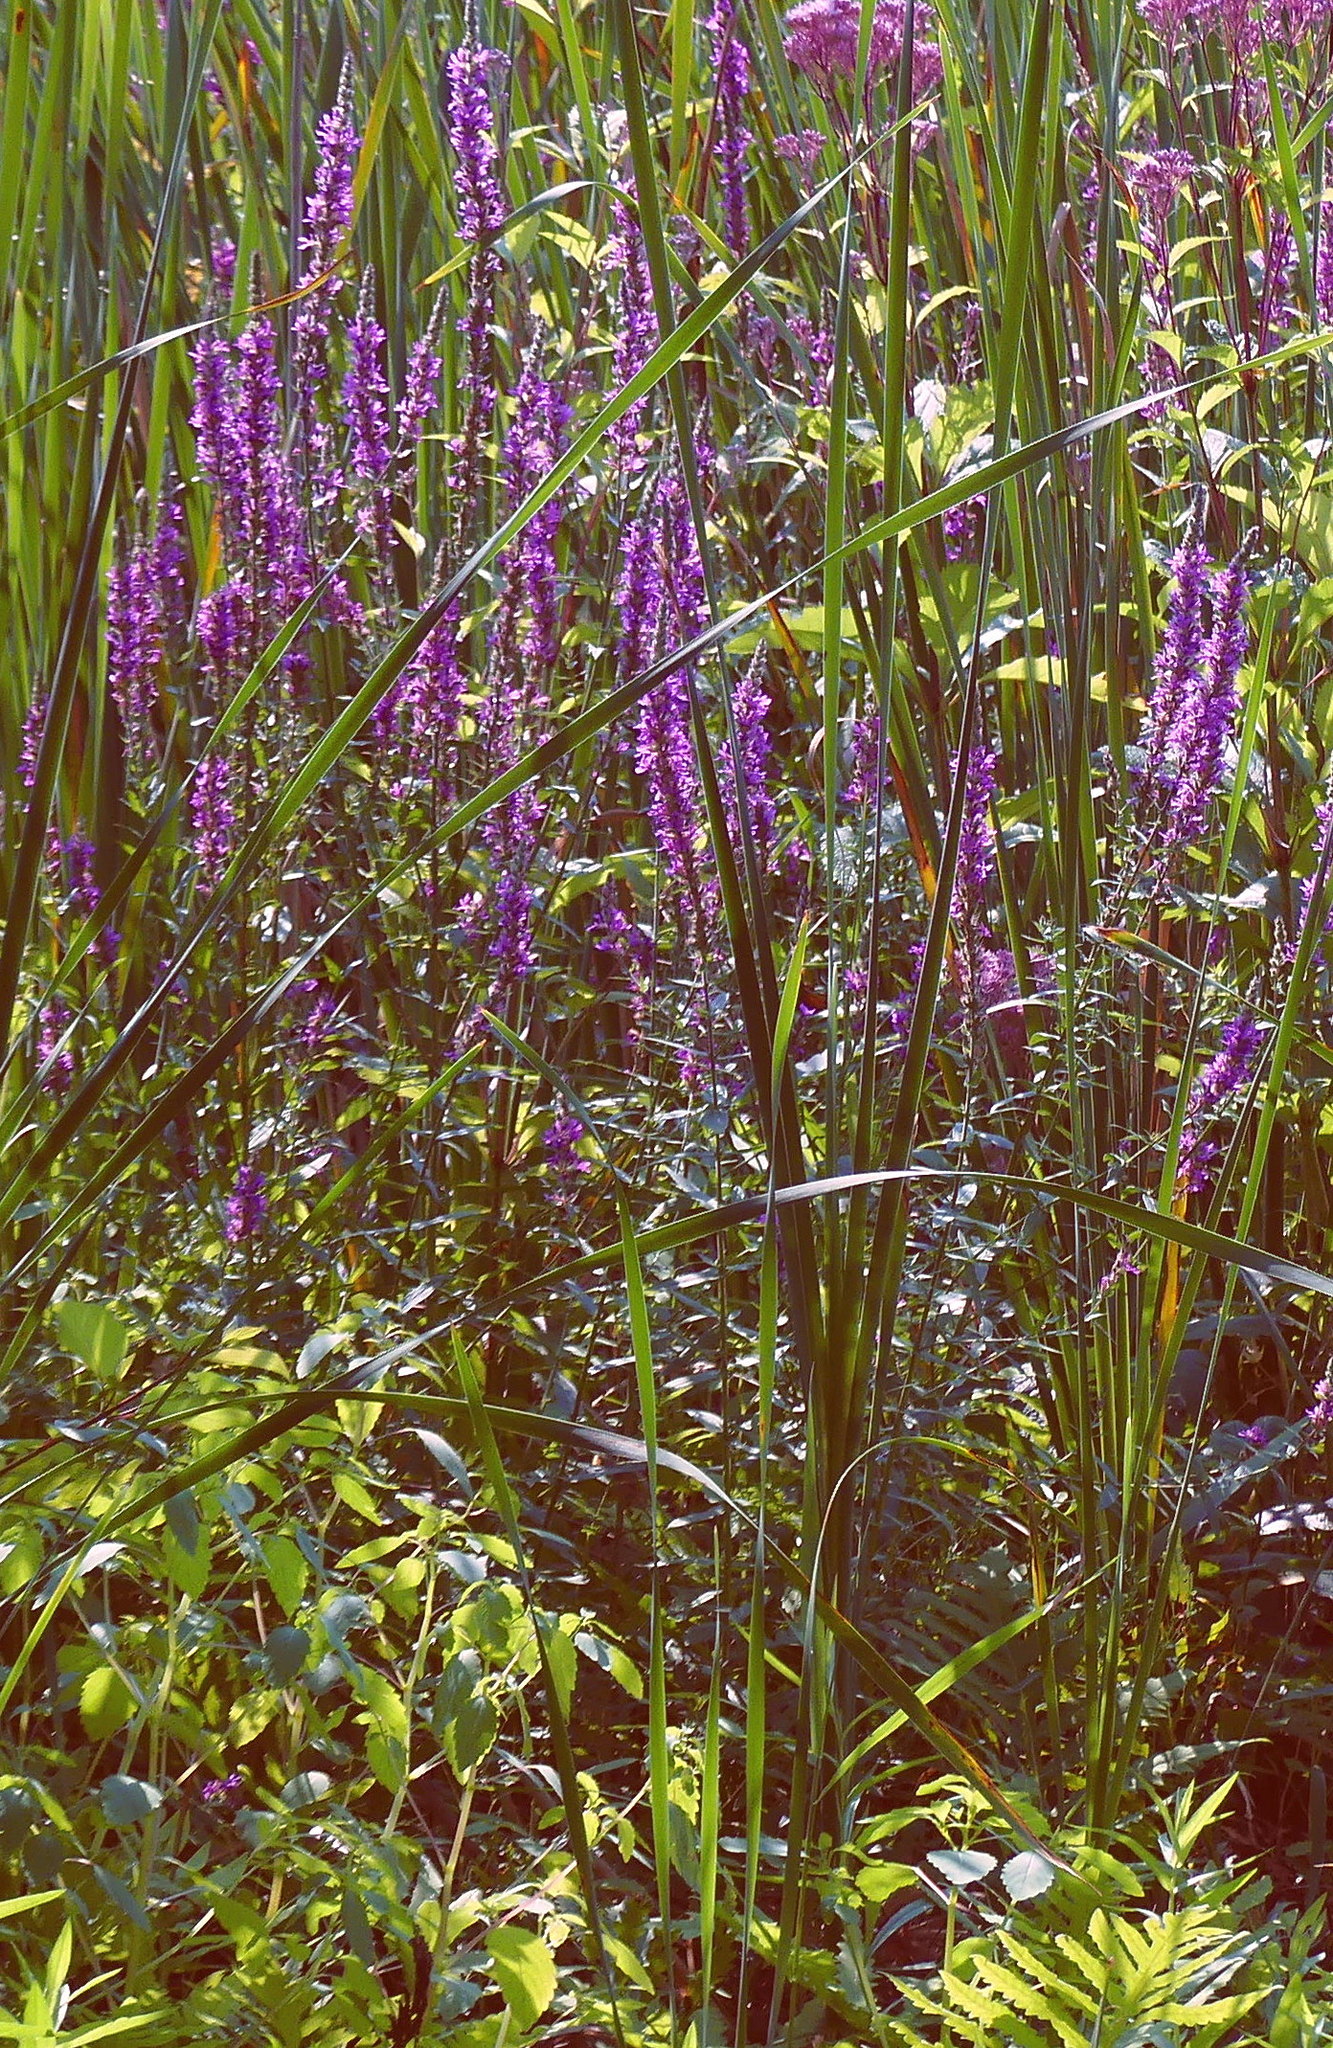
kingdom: Plantae
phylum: Tracheophyta
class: Magnoliopsida
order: Myrtales
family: Lythraceae
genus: Lythrum
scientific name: Lythrum salicaria
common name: Purple loosestrife
